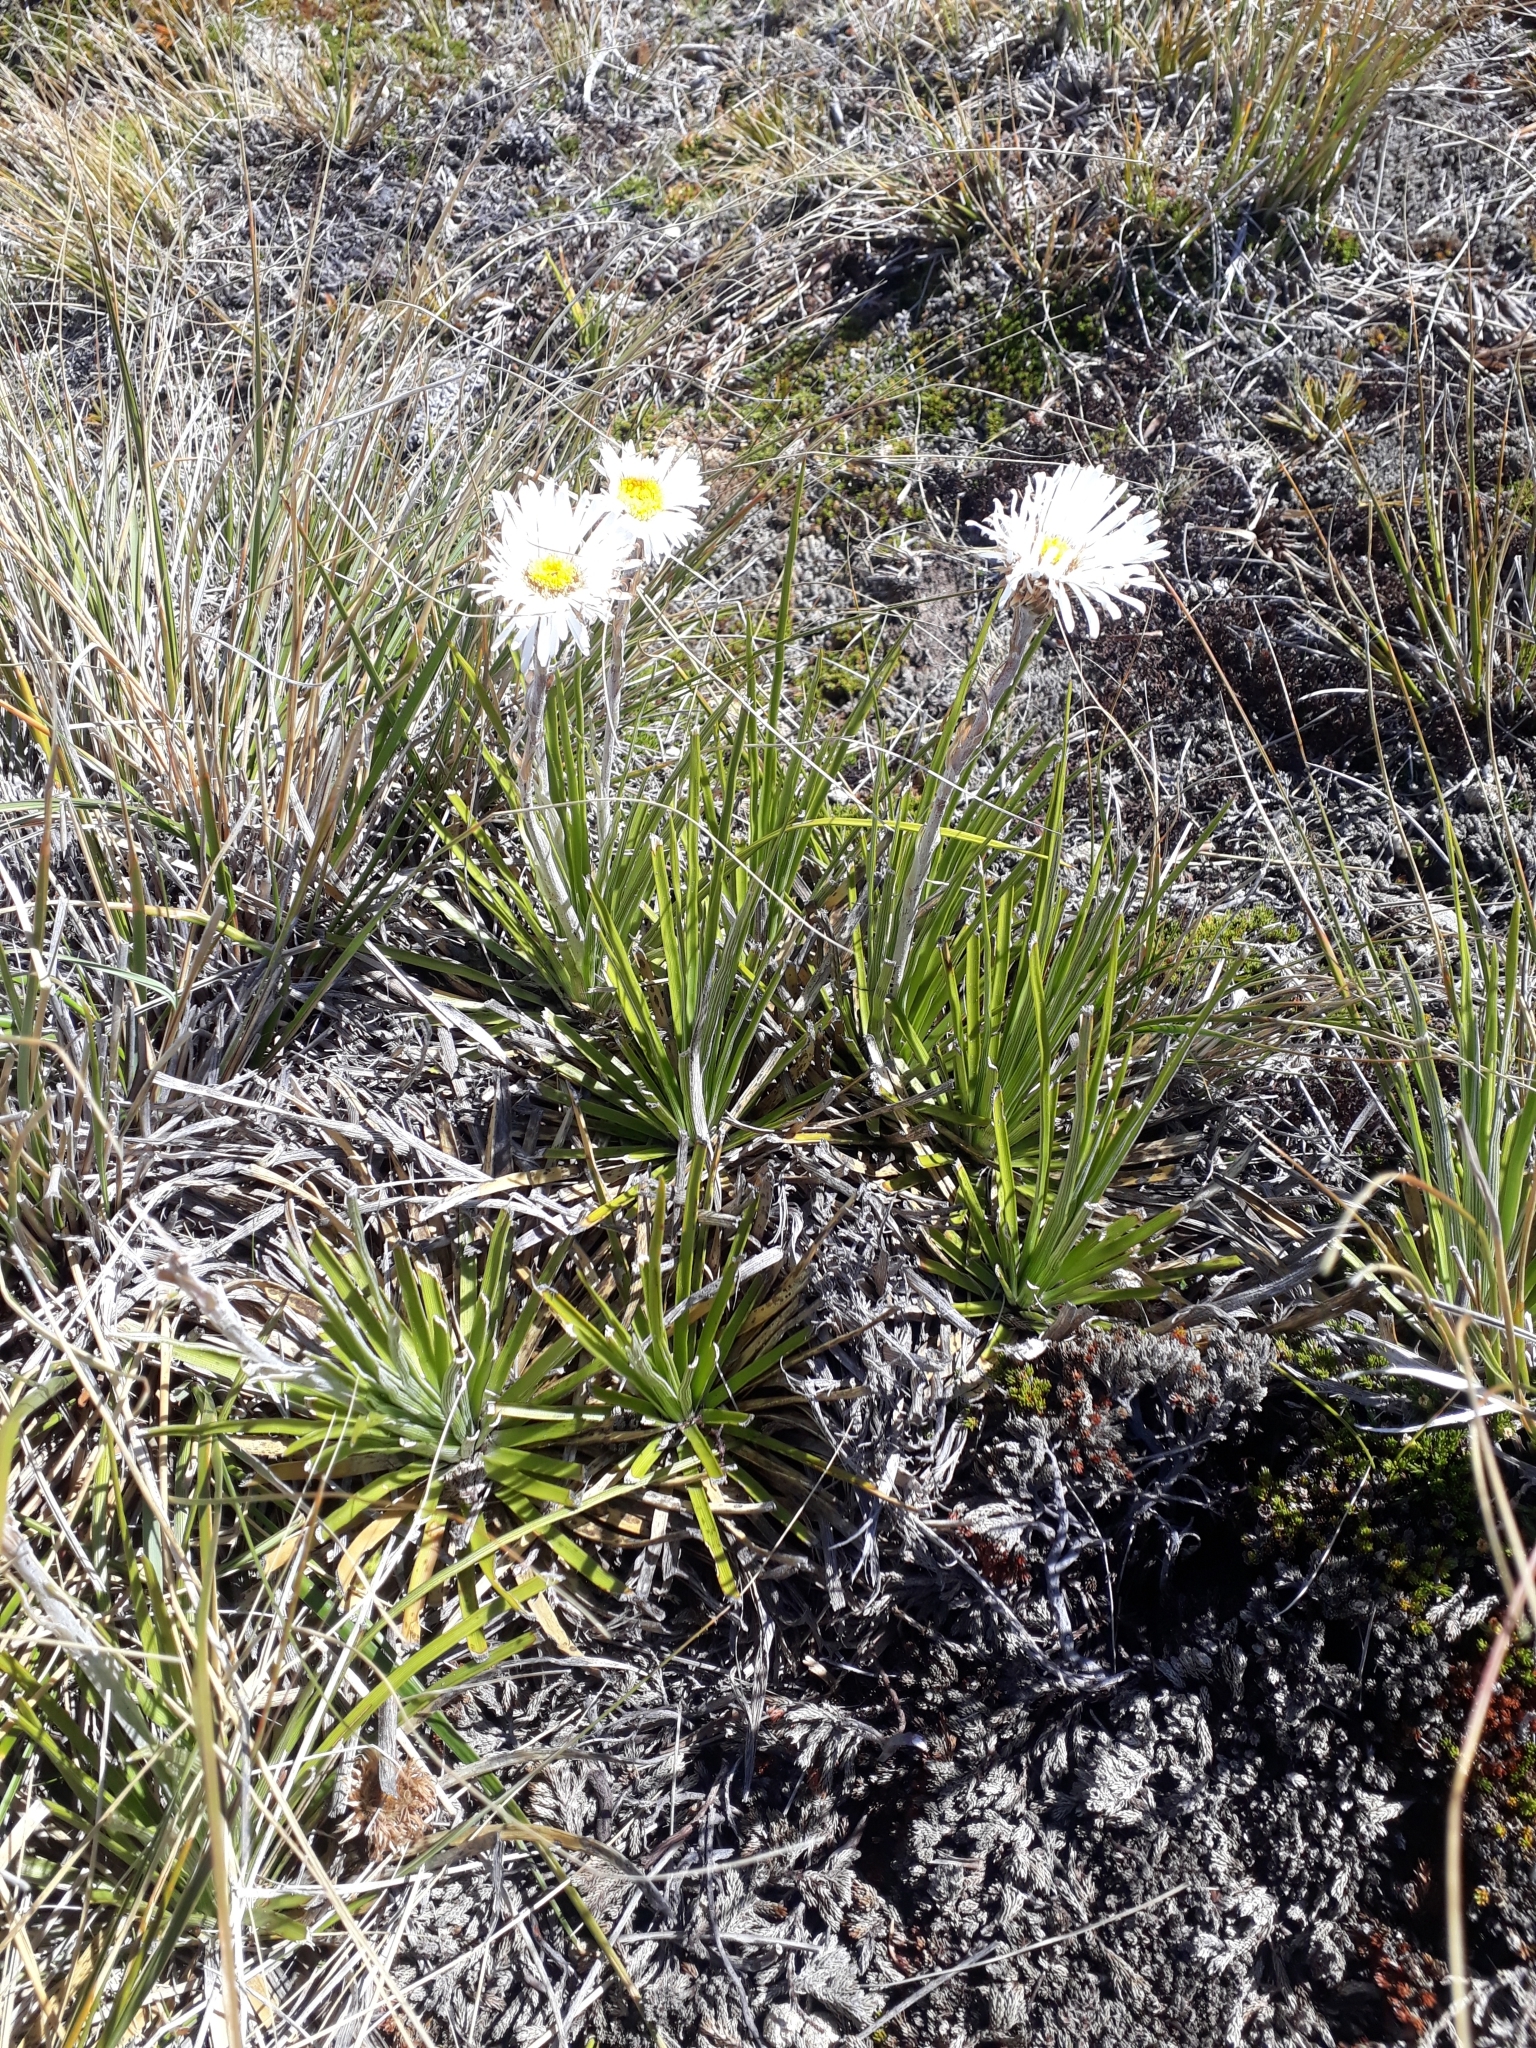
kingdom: Plantae
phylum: Tracheophyta
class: Magnoliopsida
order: Asterales
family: Asteraceae
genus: Celmisia
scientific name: Celmisia lyallii
